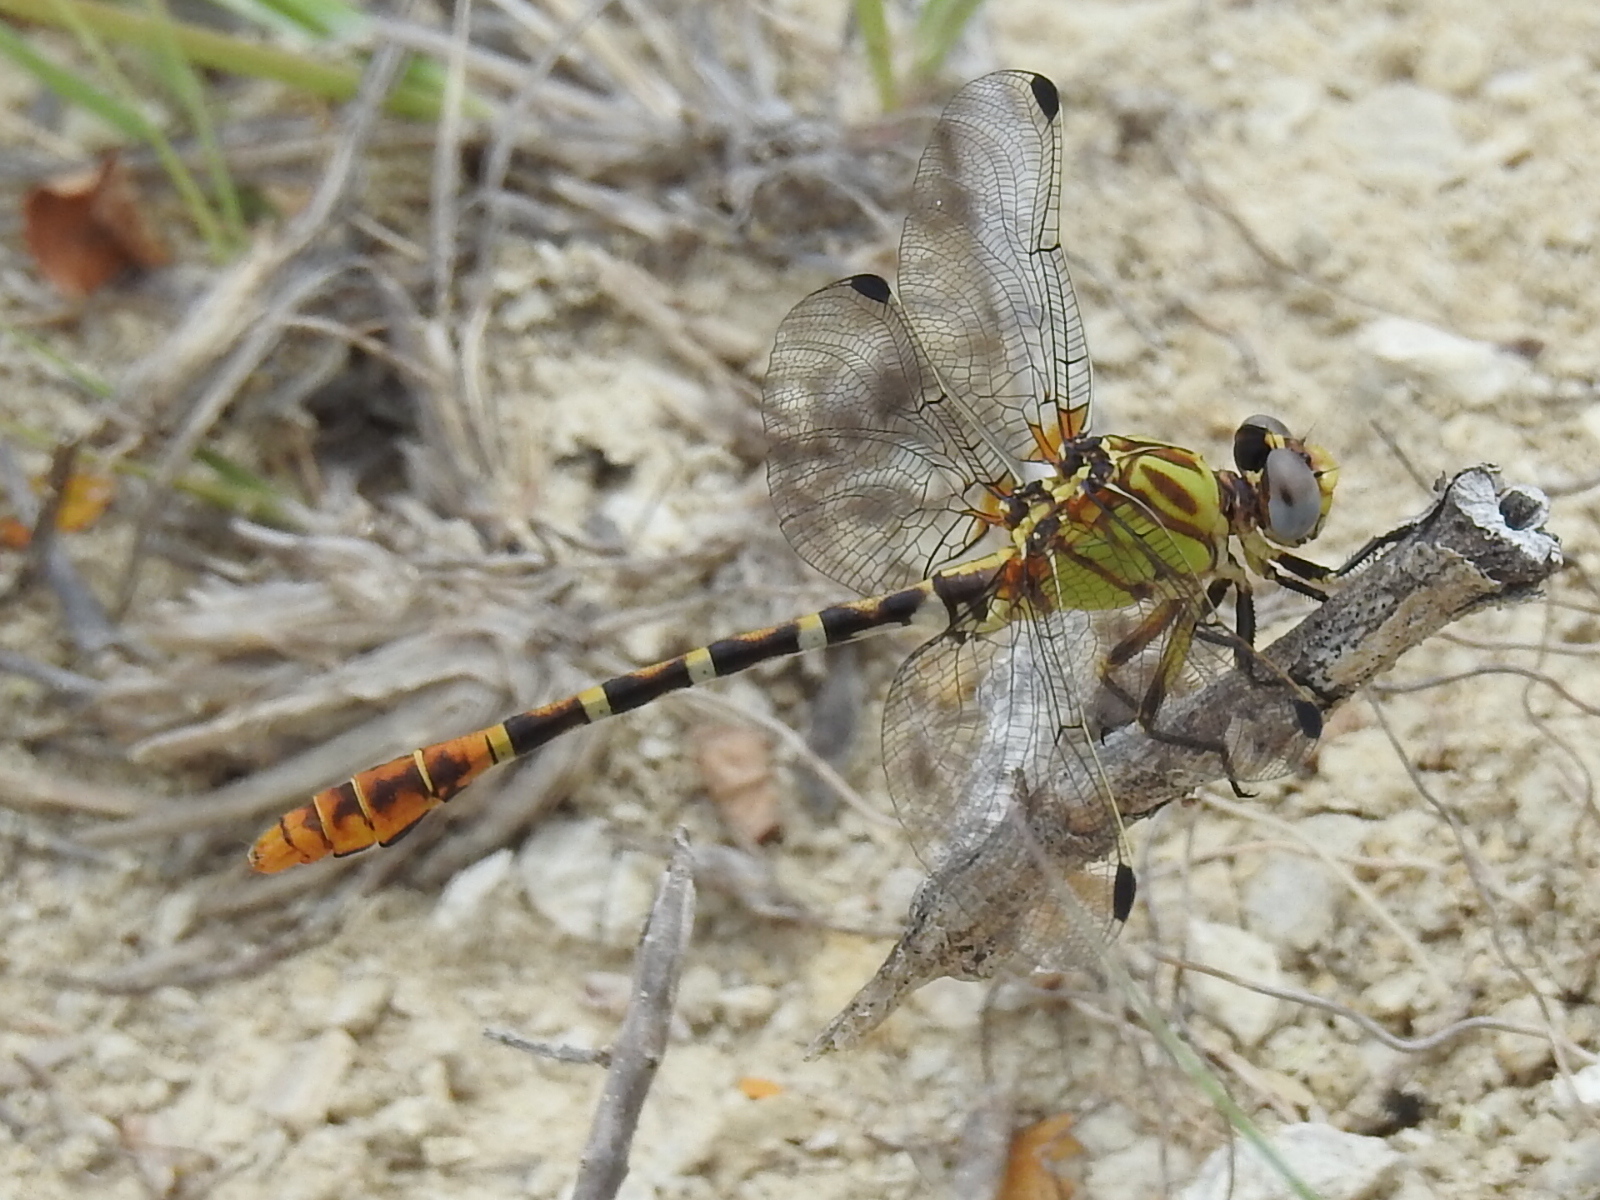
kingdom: Animalia
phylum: Arthropoda
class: Insecta
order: Odonata
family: Gomphidae
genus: Erpetogomphus
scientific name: Erpetogomphus designatus
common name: Eastern ringtail
